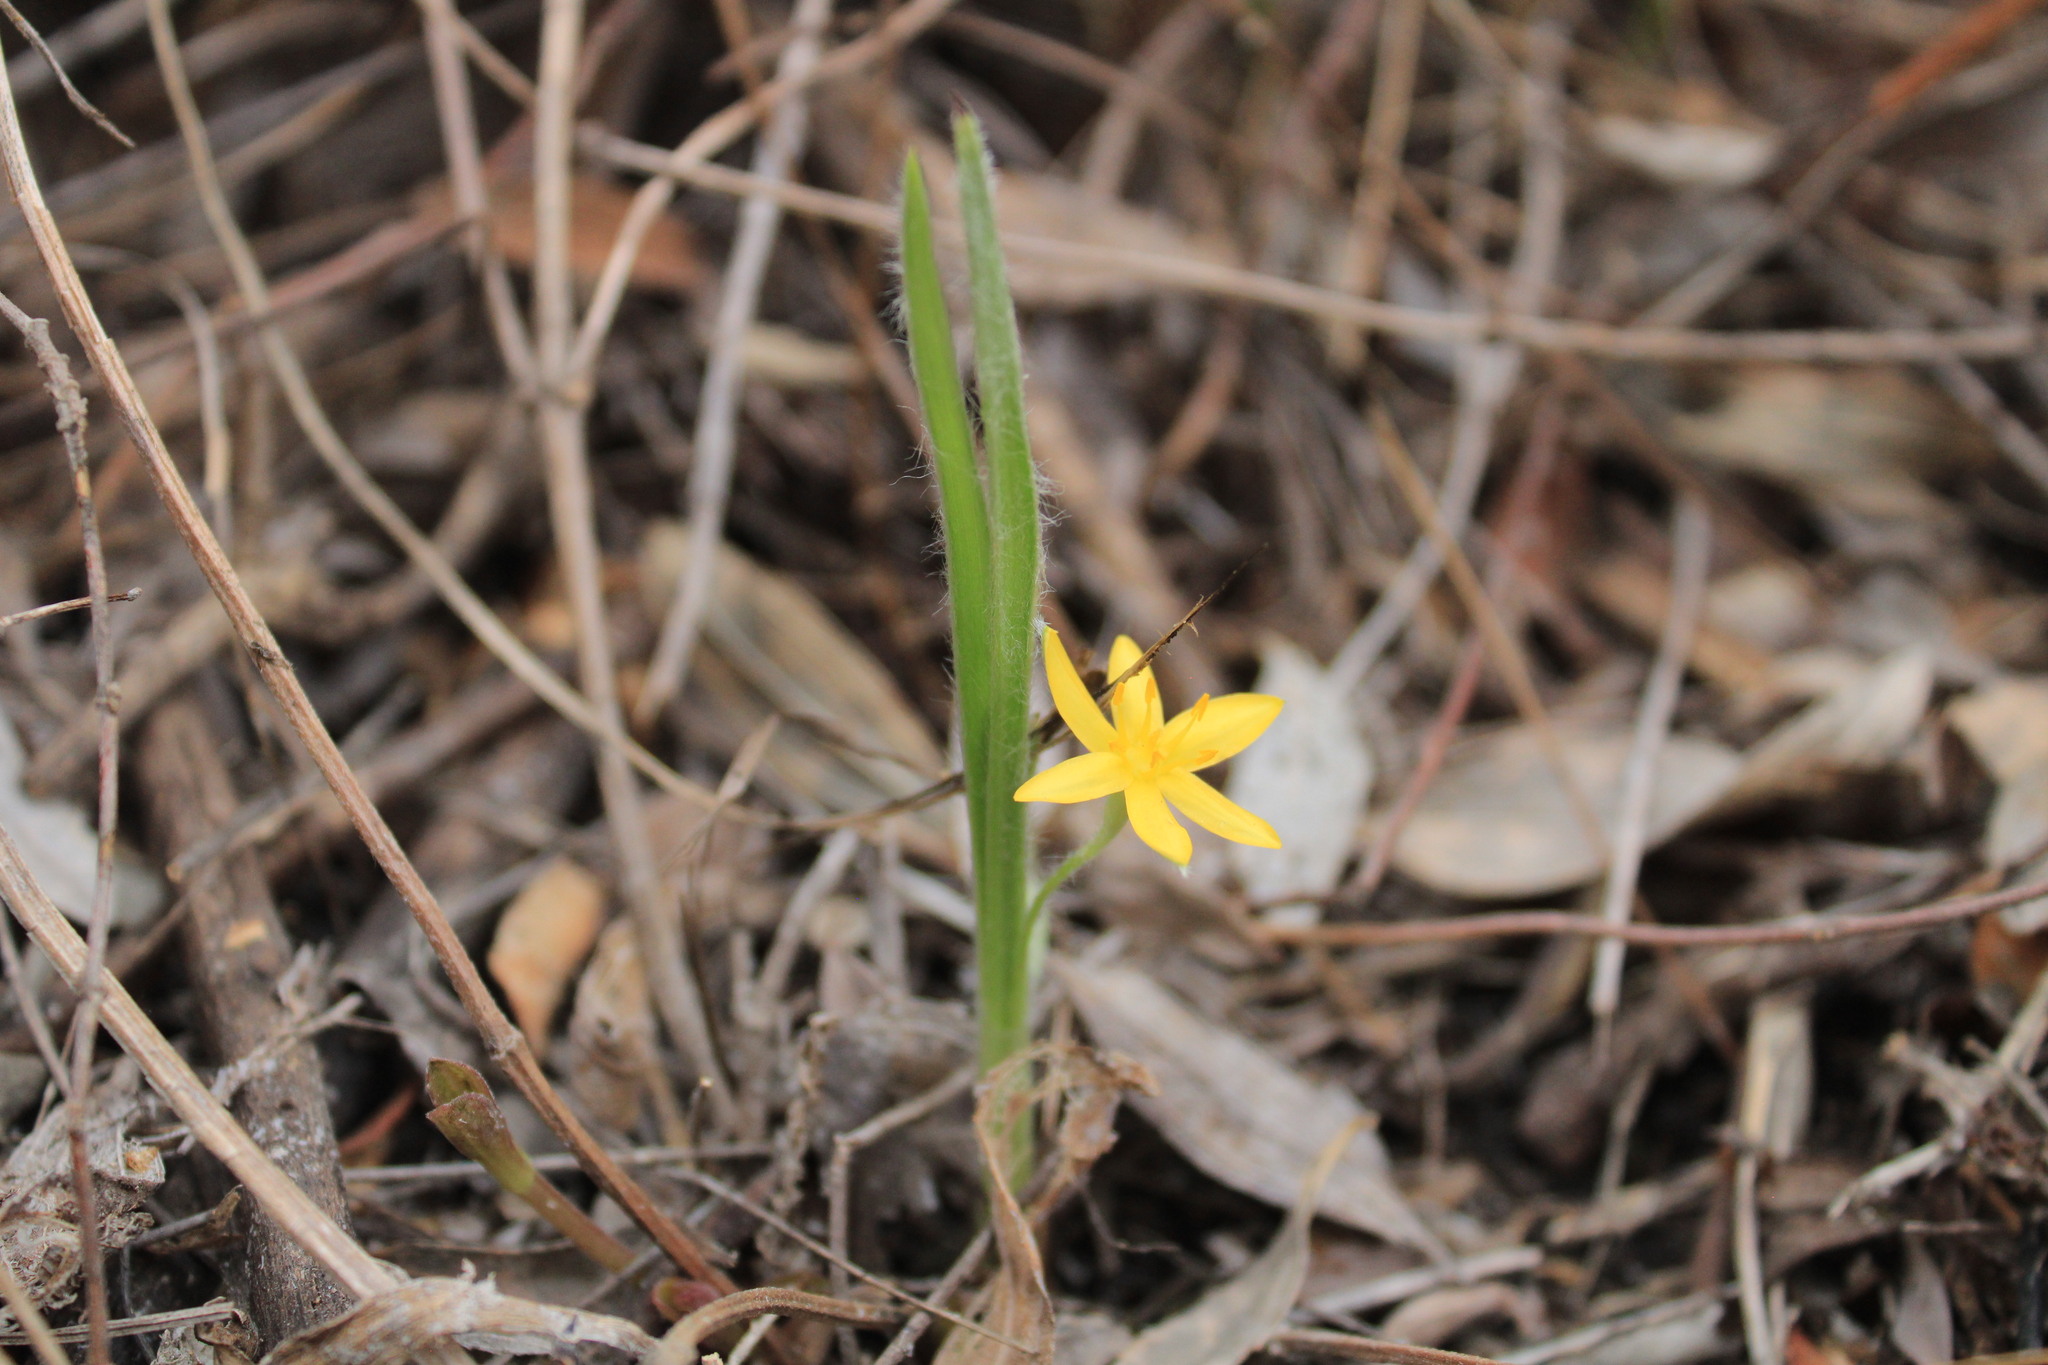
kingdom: Plantae
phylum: Tracheophyta
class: Liliopsida
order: Asparagales
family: Hypoxidaceae
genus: Hypoxis
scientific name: Hypoxis mexicana
